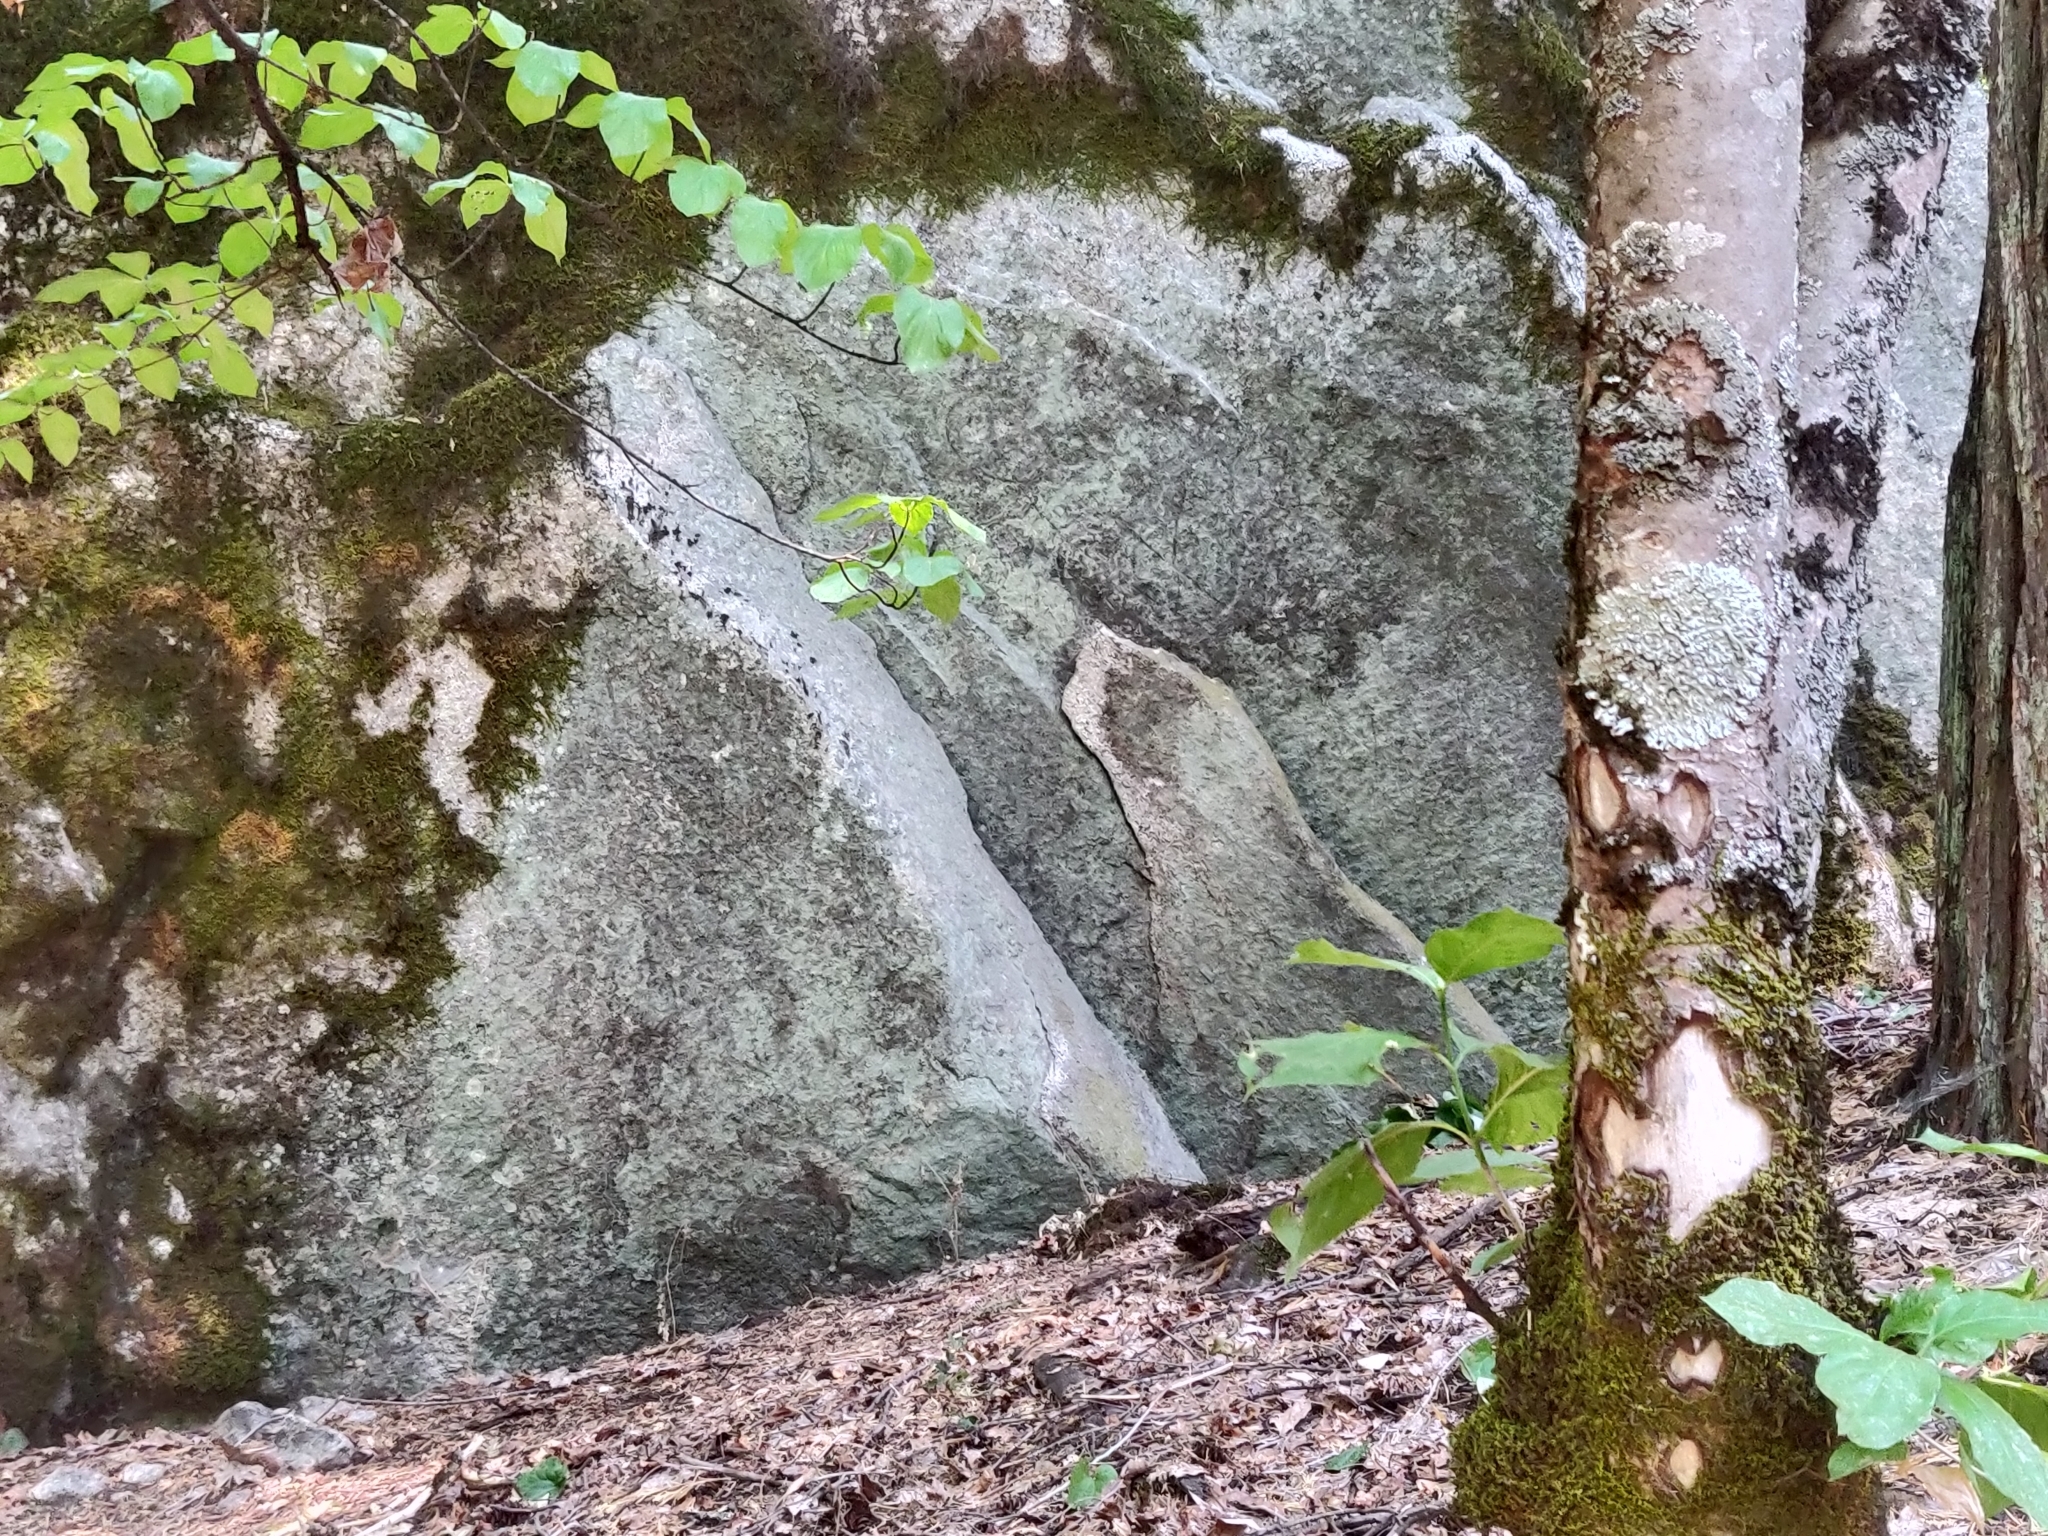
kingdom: Plantae
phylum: Tracheophyta
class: Magnoliopsida
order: Cornales
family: Cornaceae
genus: Cornus
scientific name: Cornus nuttallii
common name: Pacific dogwood
